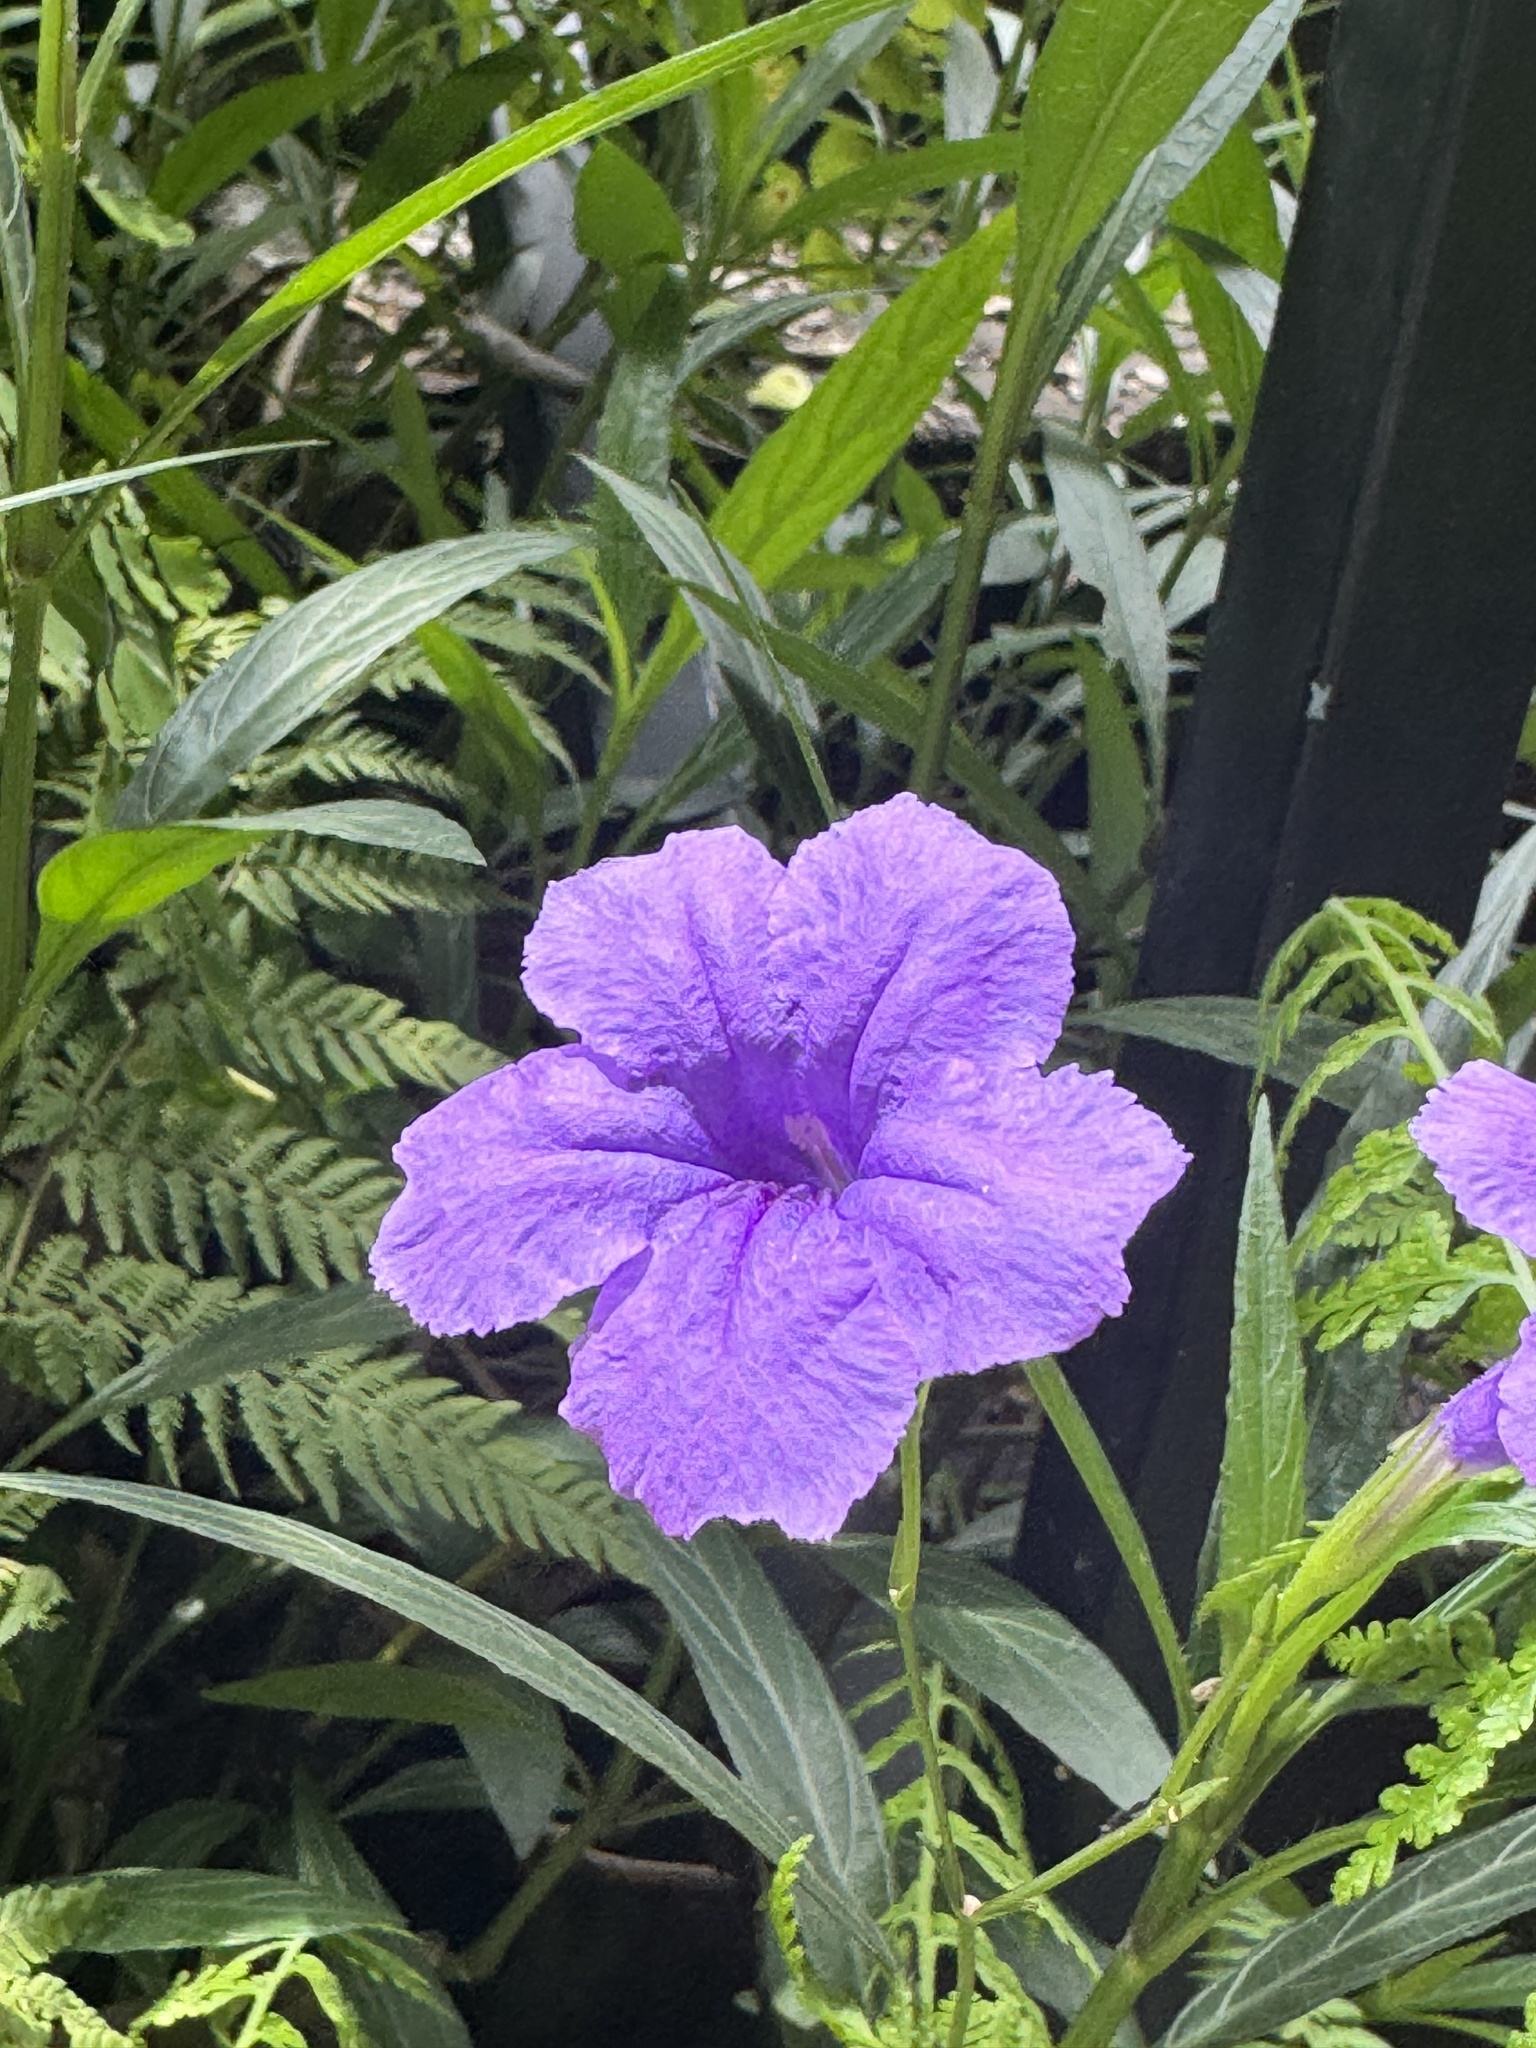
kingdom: Plantae
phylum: Tracheophyta
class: Magnoliopsida
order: Lamiales
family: Acanthaceae
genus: Ruellia
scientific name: Ruellia simplex
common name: Softseed wild petunia
